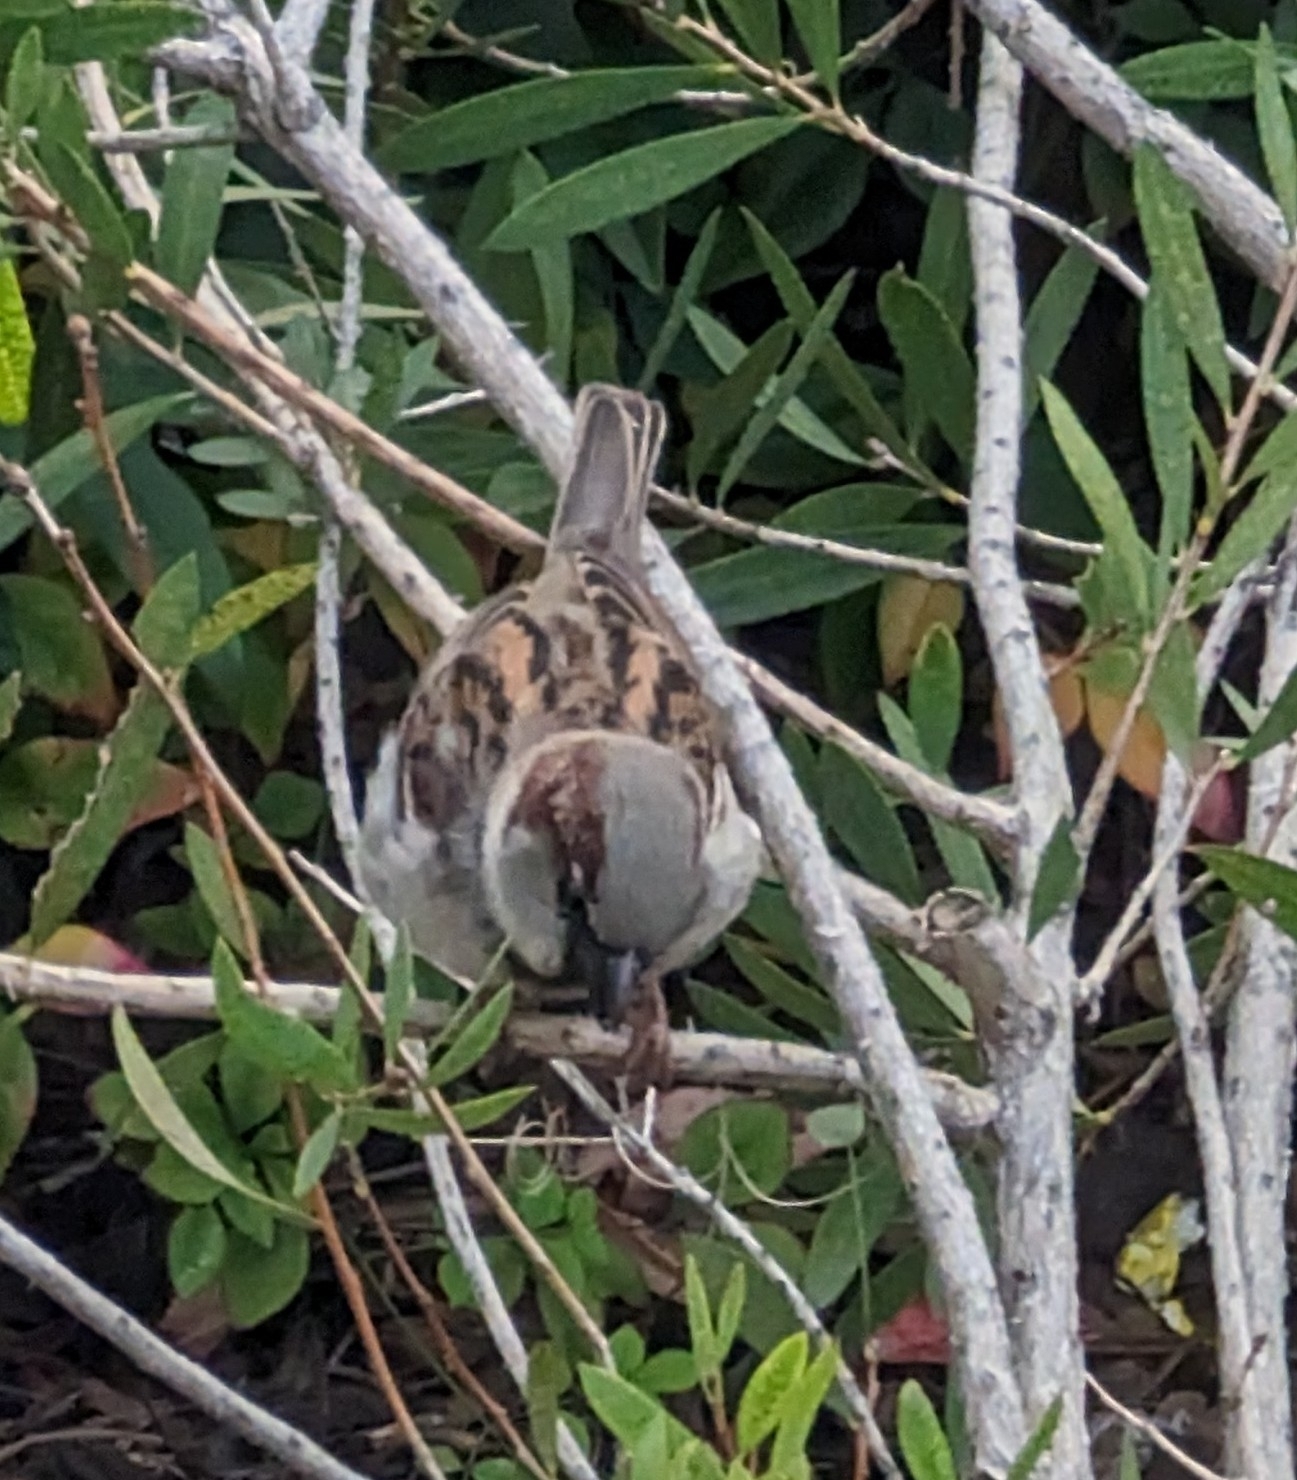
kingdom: Animalia
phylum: Chordata
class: Aves
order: Passeriformes
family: Passeridae
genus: Passer
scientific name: Passer domesticus
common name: House sparrow
